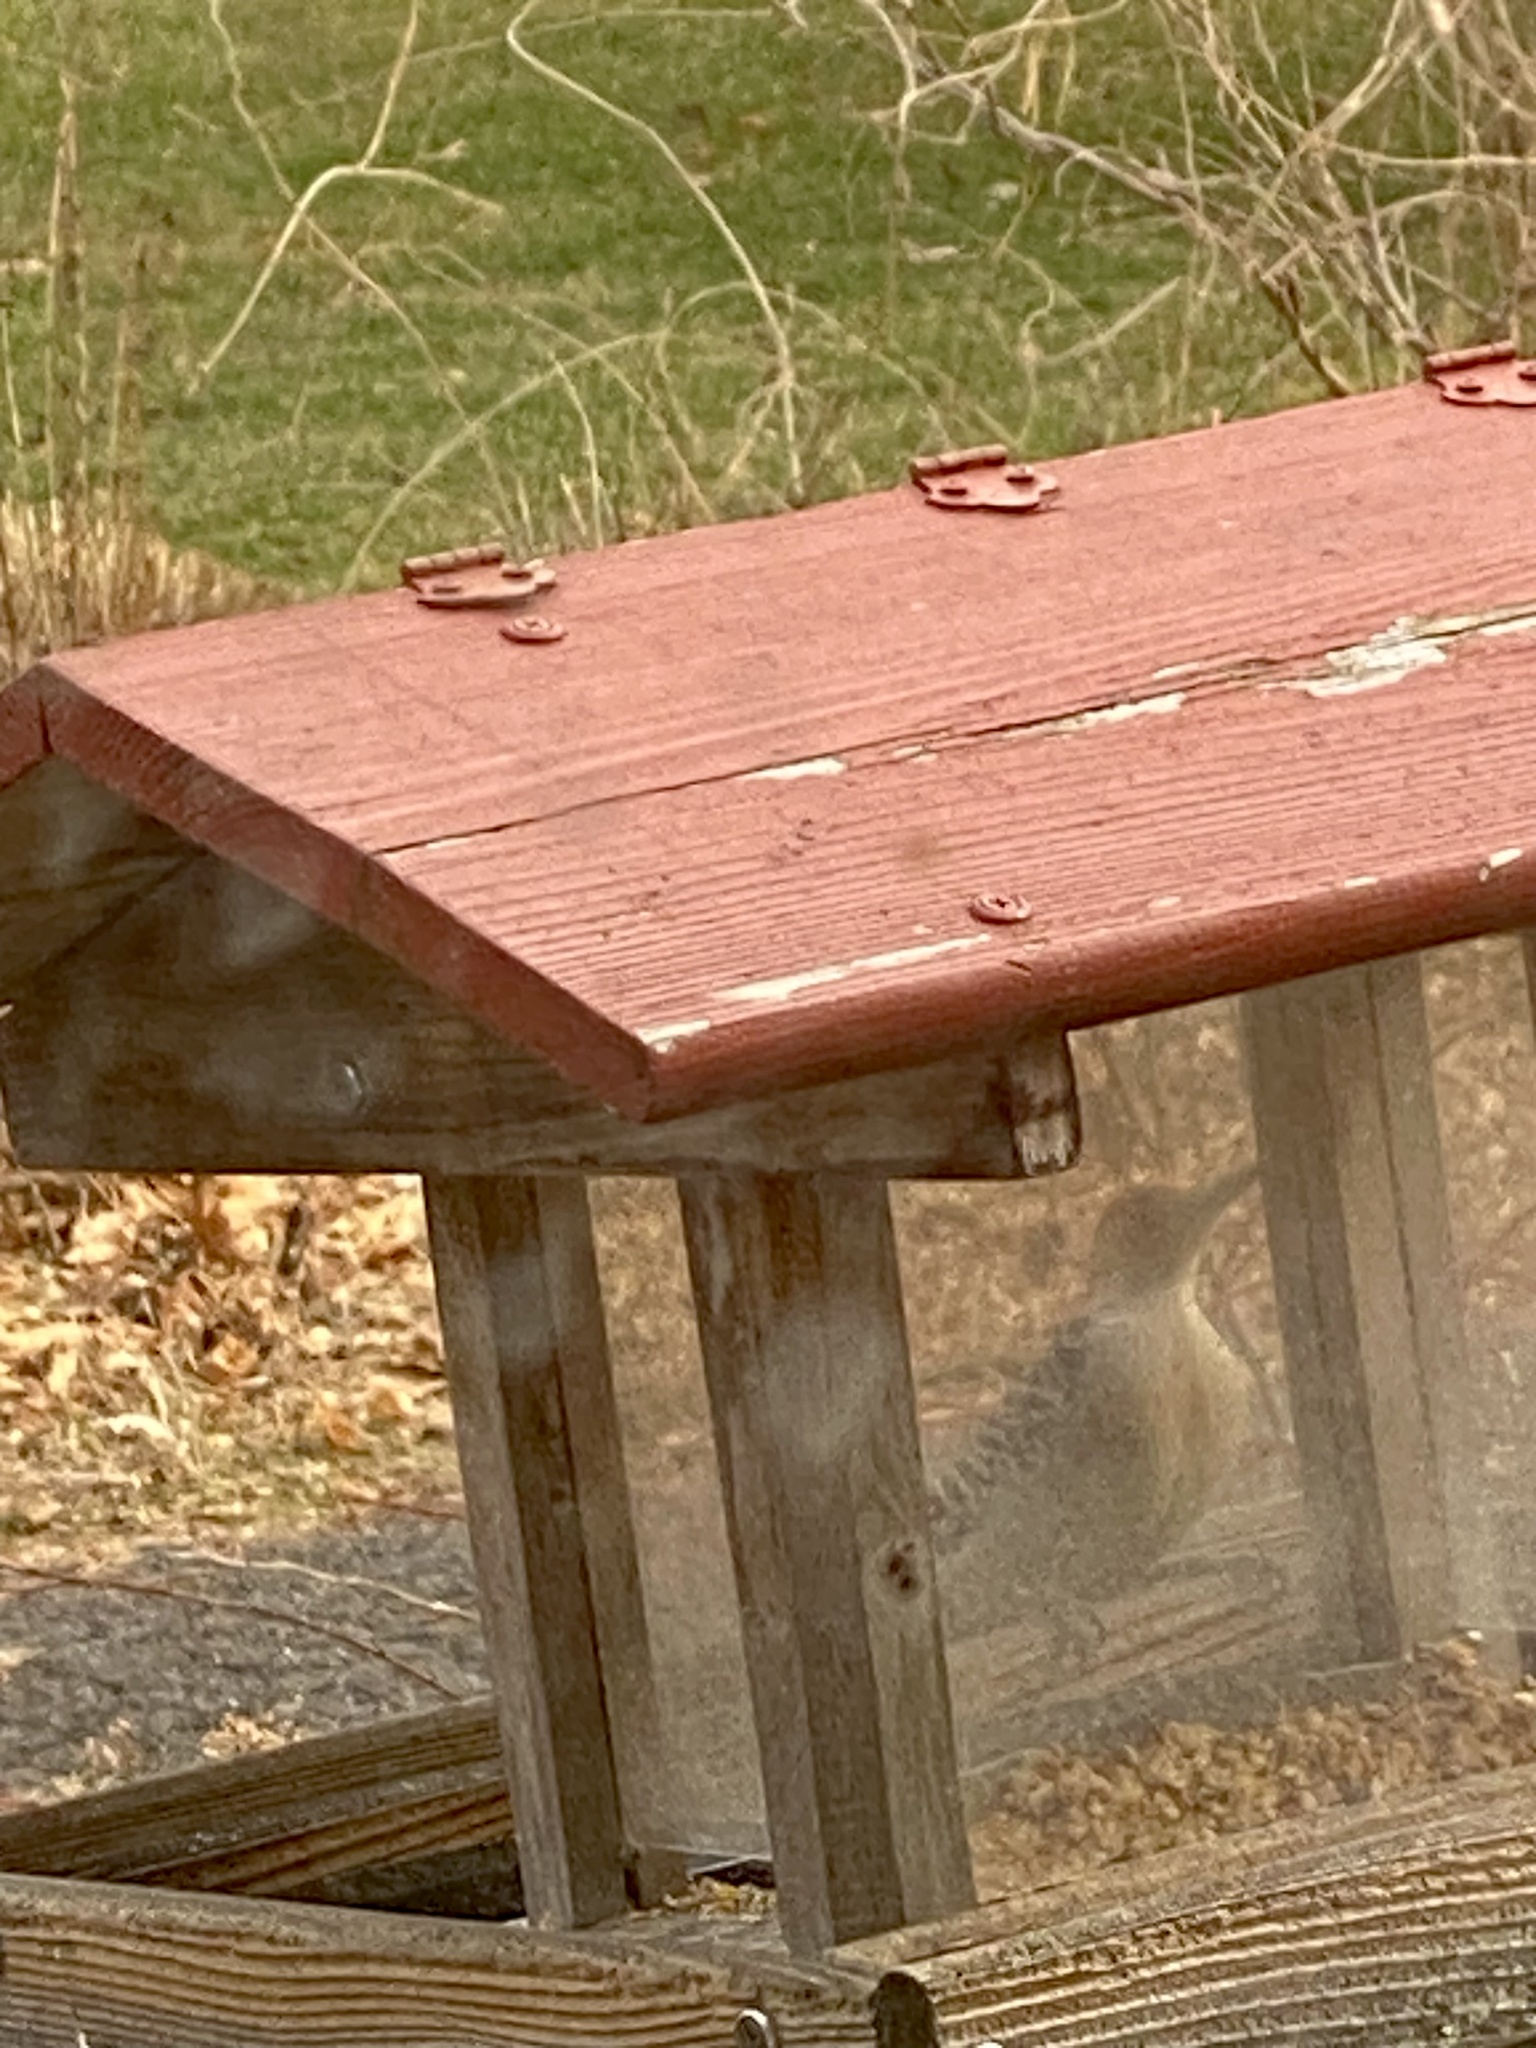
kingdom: Animalia
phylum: Chordata
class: Aves
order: Piciformes
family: Picidae
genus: Melanerpes
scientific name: Melanerpes carolinus
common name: Red-bellied woodpecker
